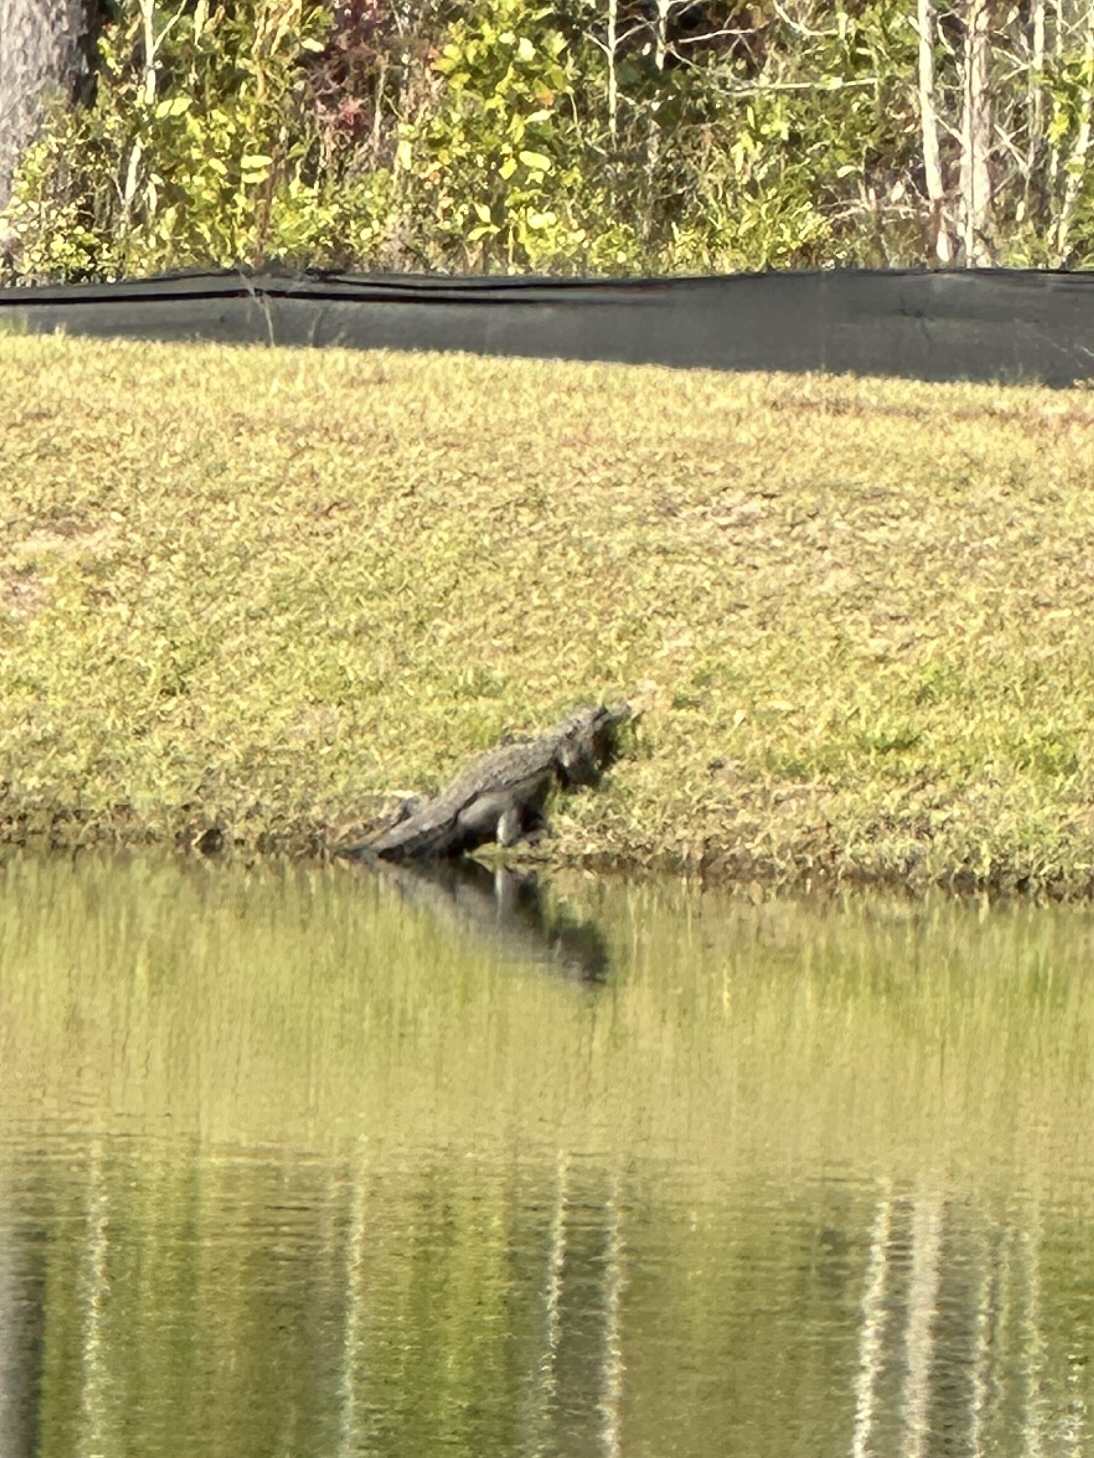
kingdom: Animalia
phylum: Chordata
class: Crocodylia
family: Alligatoridae
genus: Alligator
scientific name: Alligator mississippiensis
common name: American alligator
